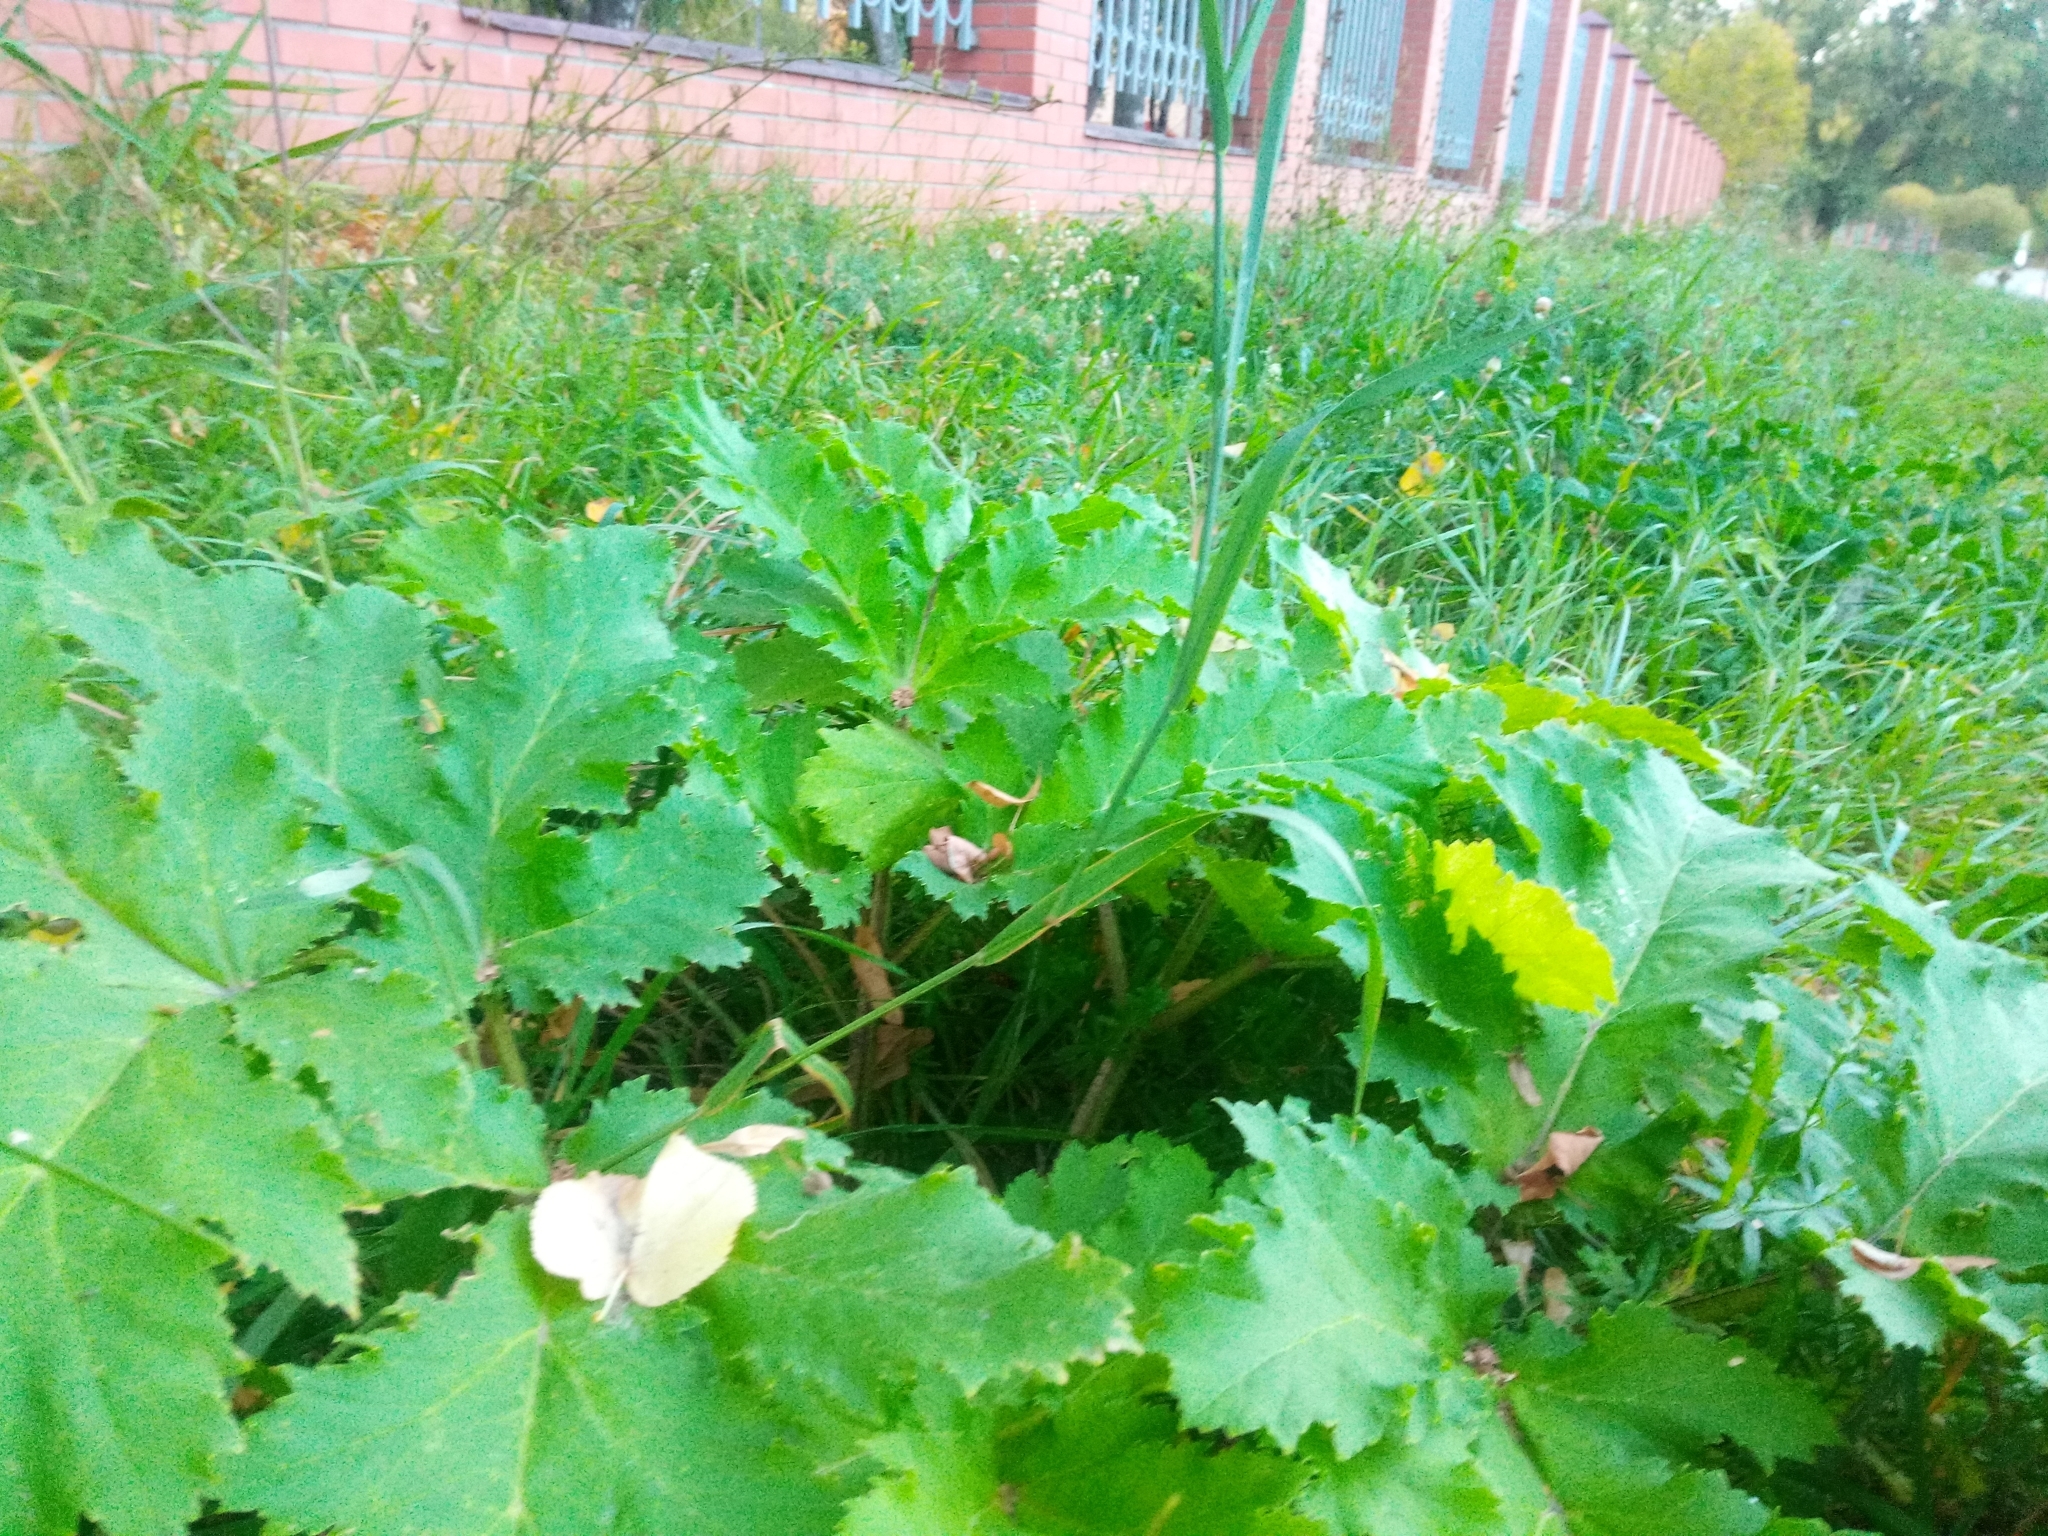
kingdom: Plantae
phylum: Tracheophyta
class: Magnoliopsida
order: Apiales
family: Apiaceae
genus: Heracleum
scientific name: Heracleum sosnowskyi
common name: Sosnowsky's hogweed
